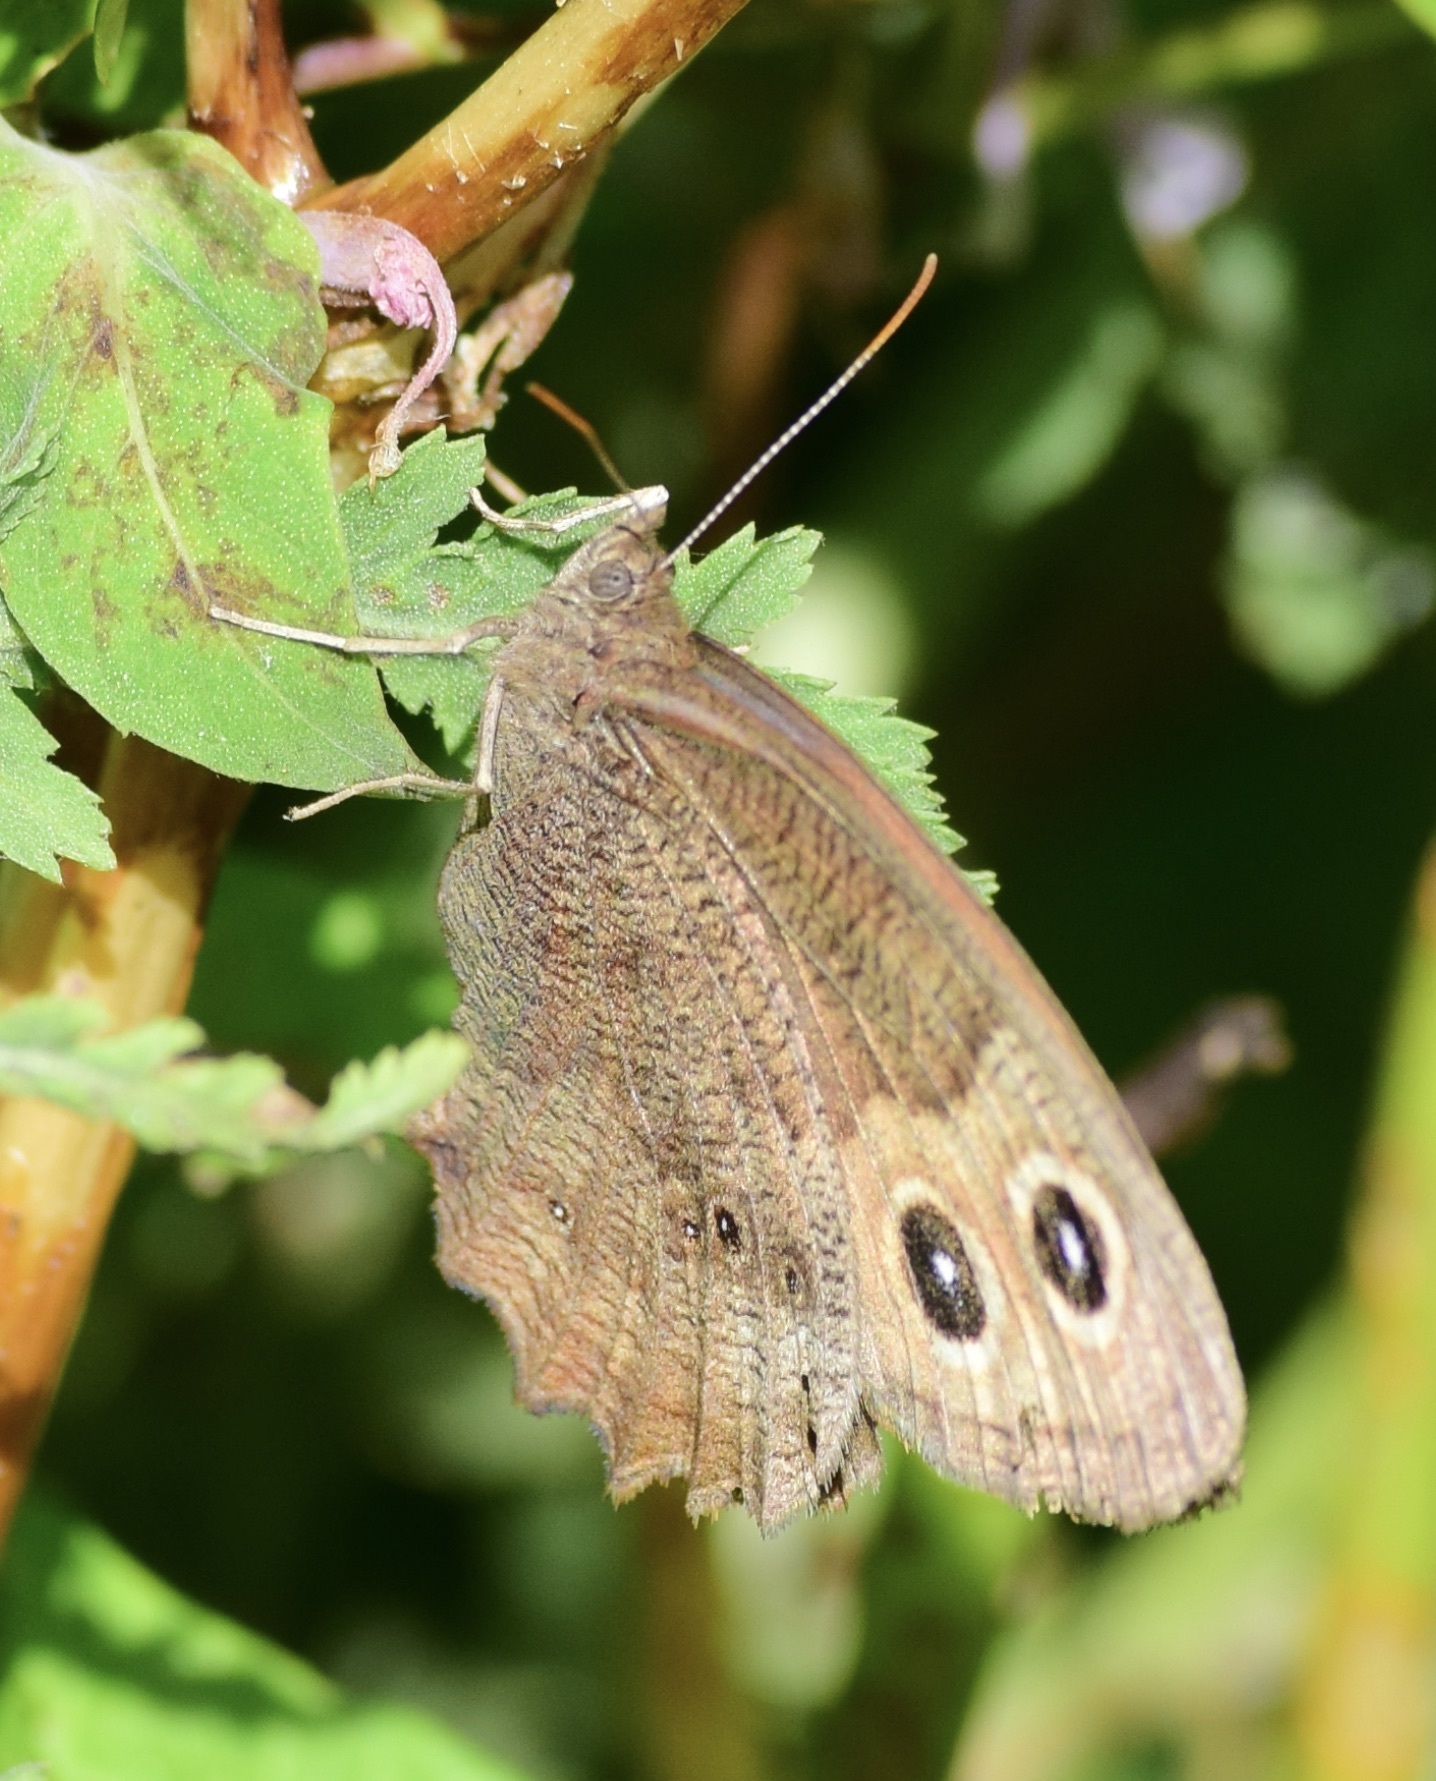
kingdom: Animalia
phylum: Arthropoda
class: Insecta
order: Lepidoptera
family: Nymphalidae
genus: Cercyonis
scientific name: Cercyonis pegala
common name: Common wood-nymph
